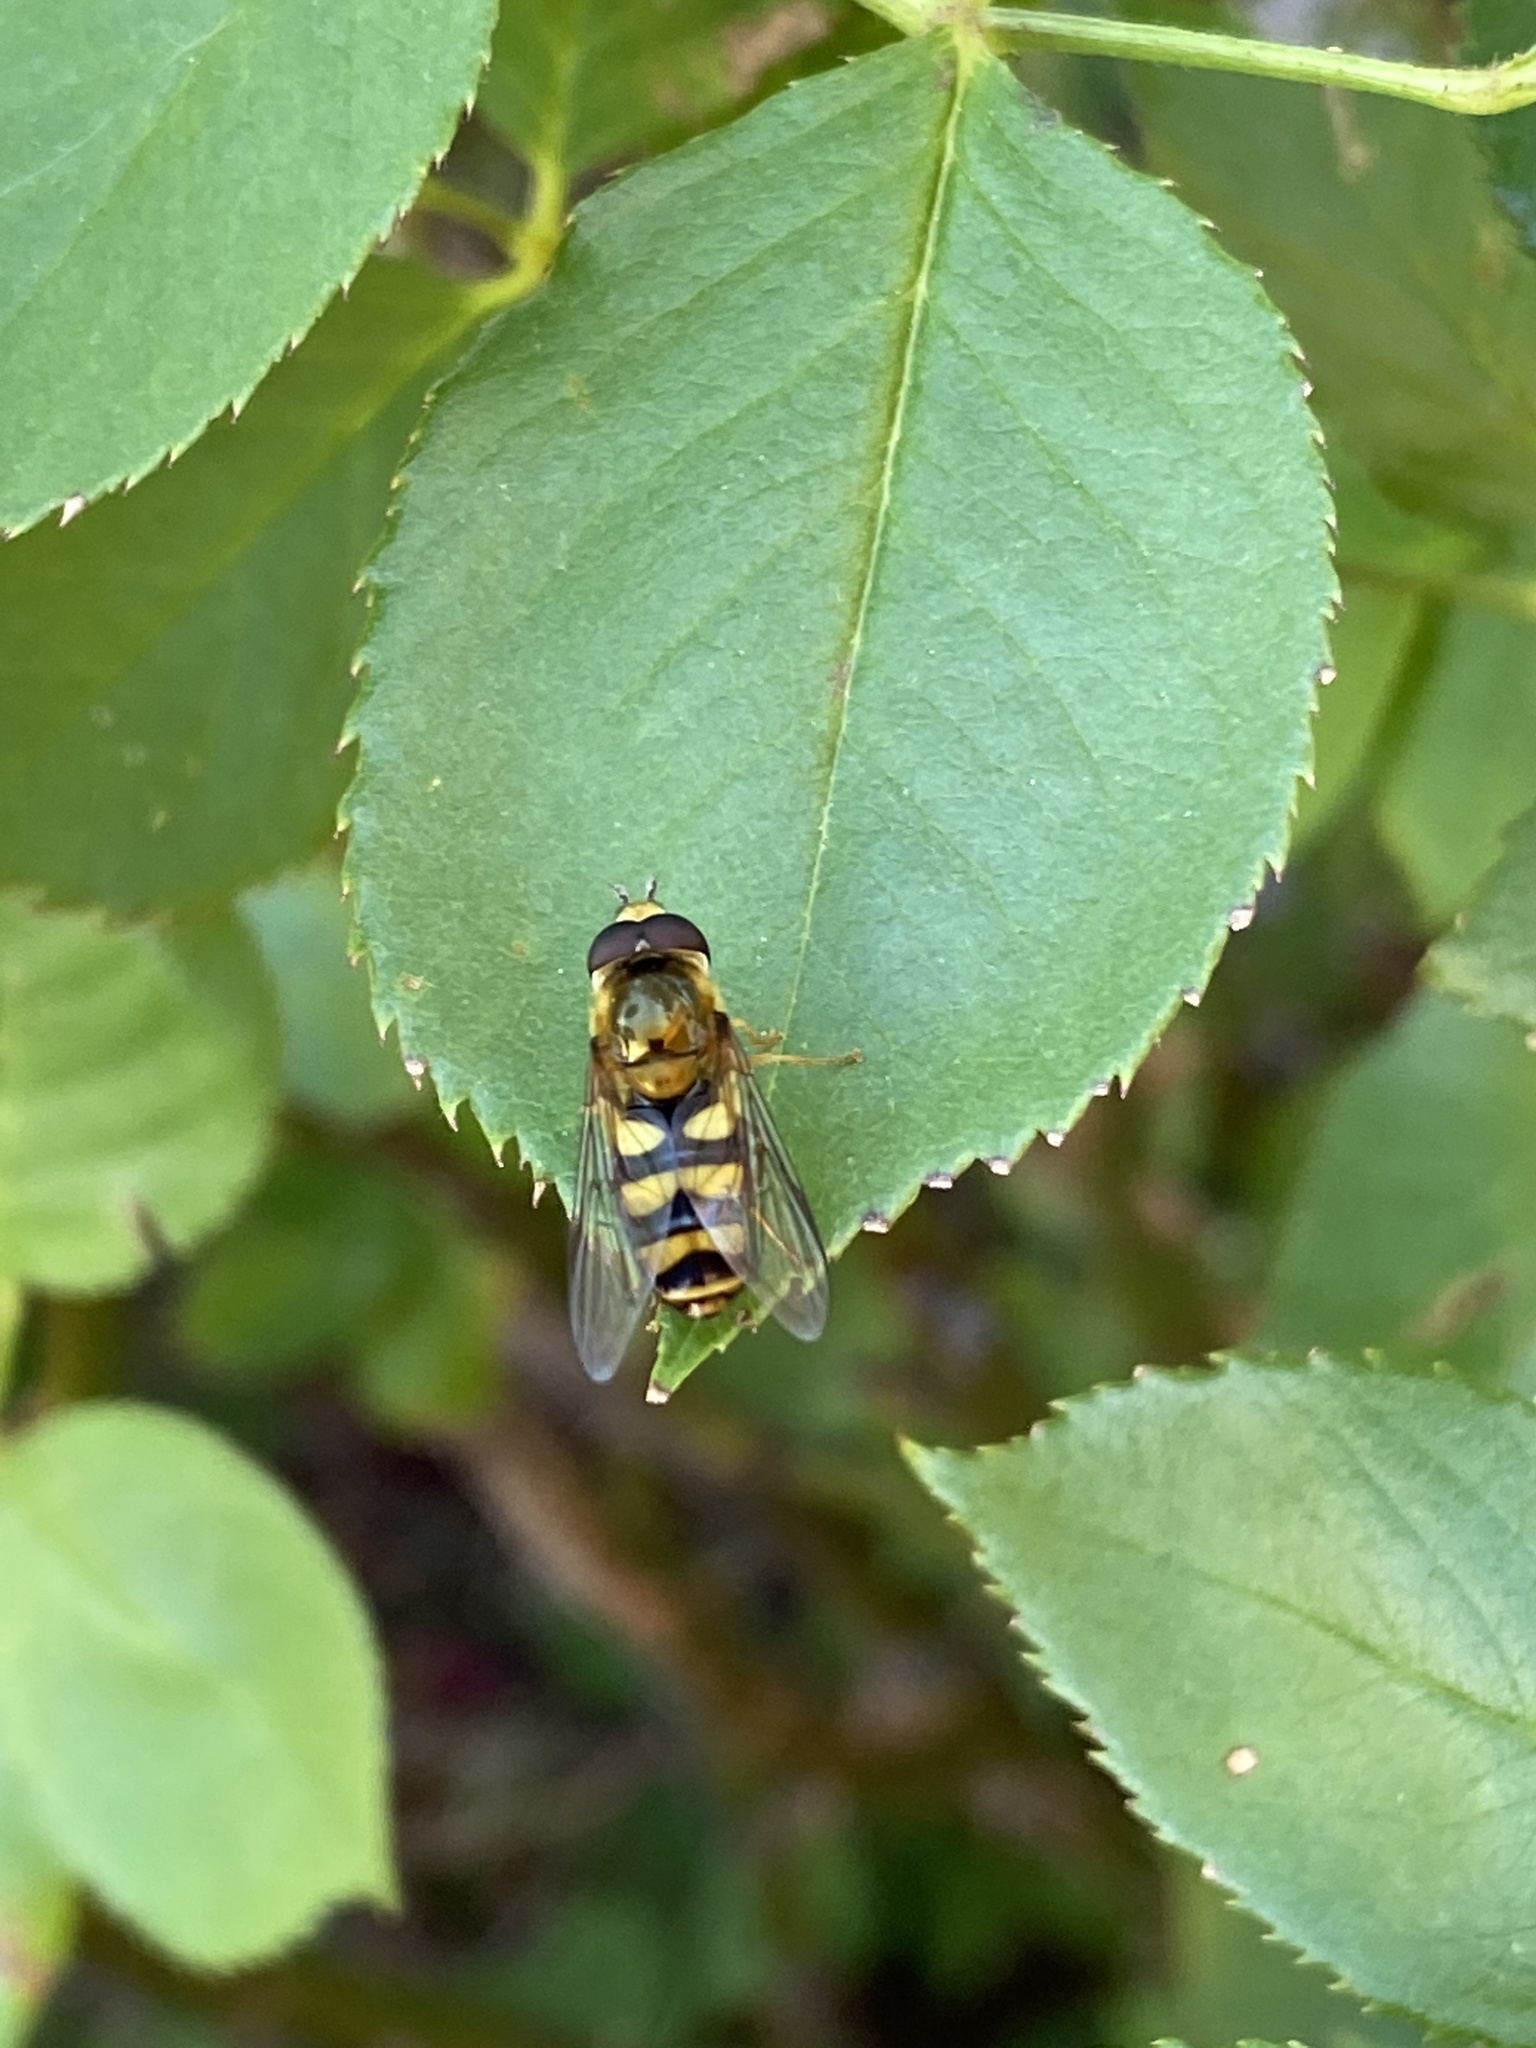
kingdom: Animalia
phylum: Arthropoda
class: Insecta
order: Diptera
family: Syrphidae
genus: Eupeodes
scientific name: Eupeodes fumipennis
